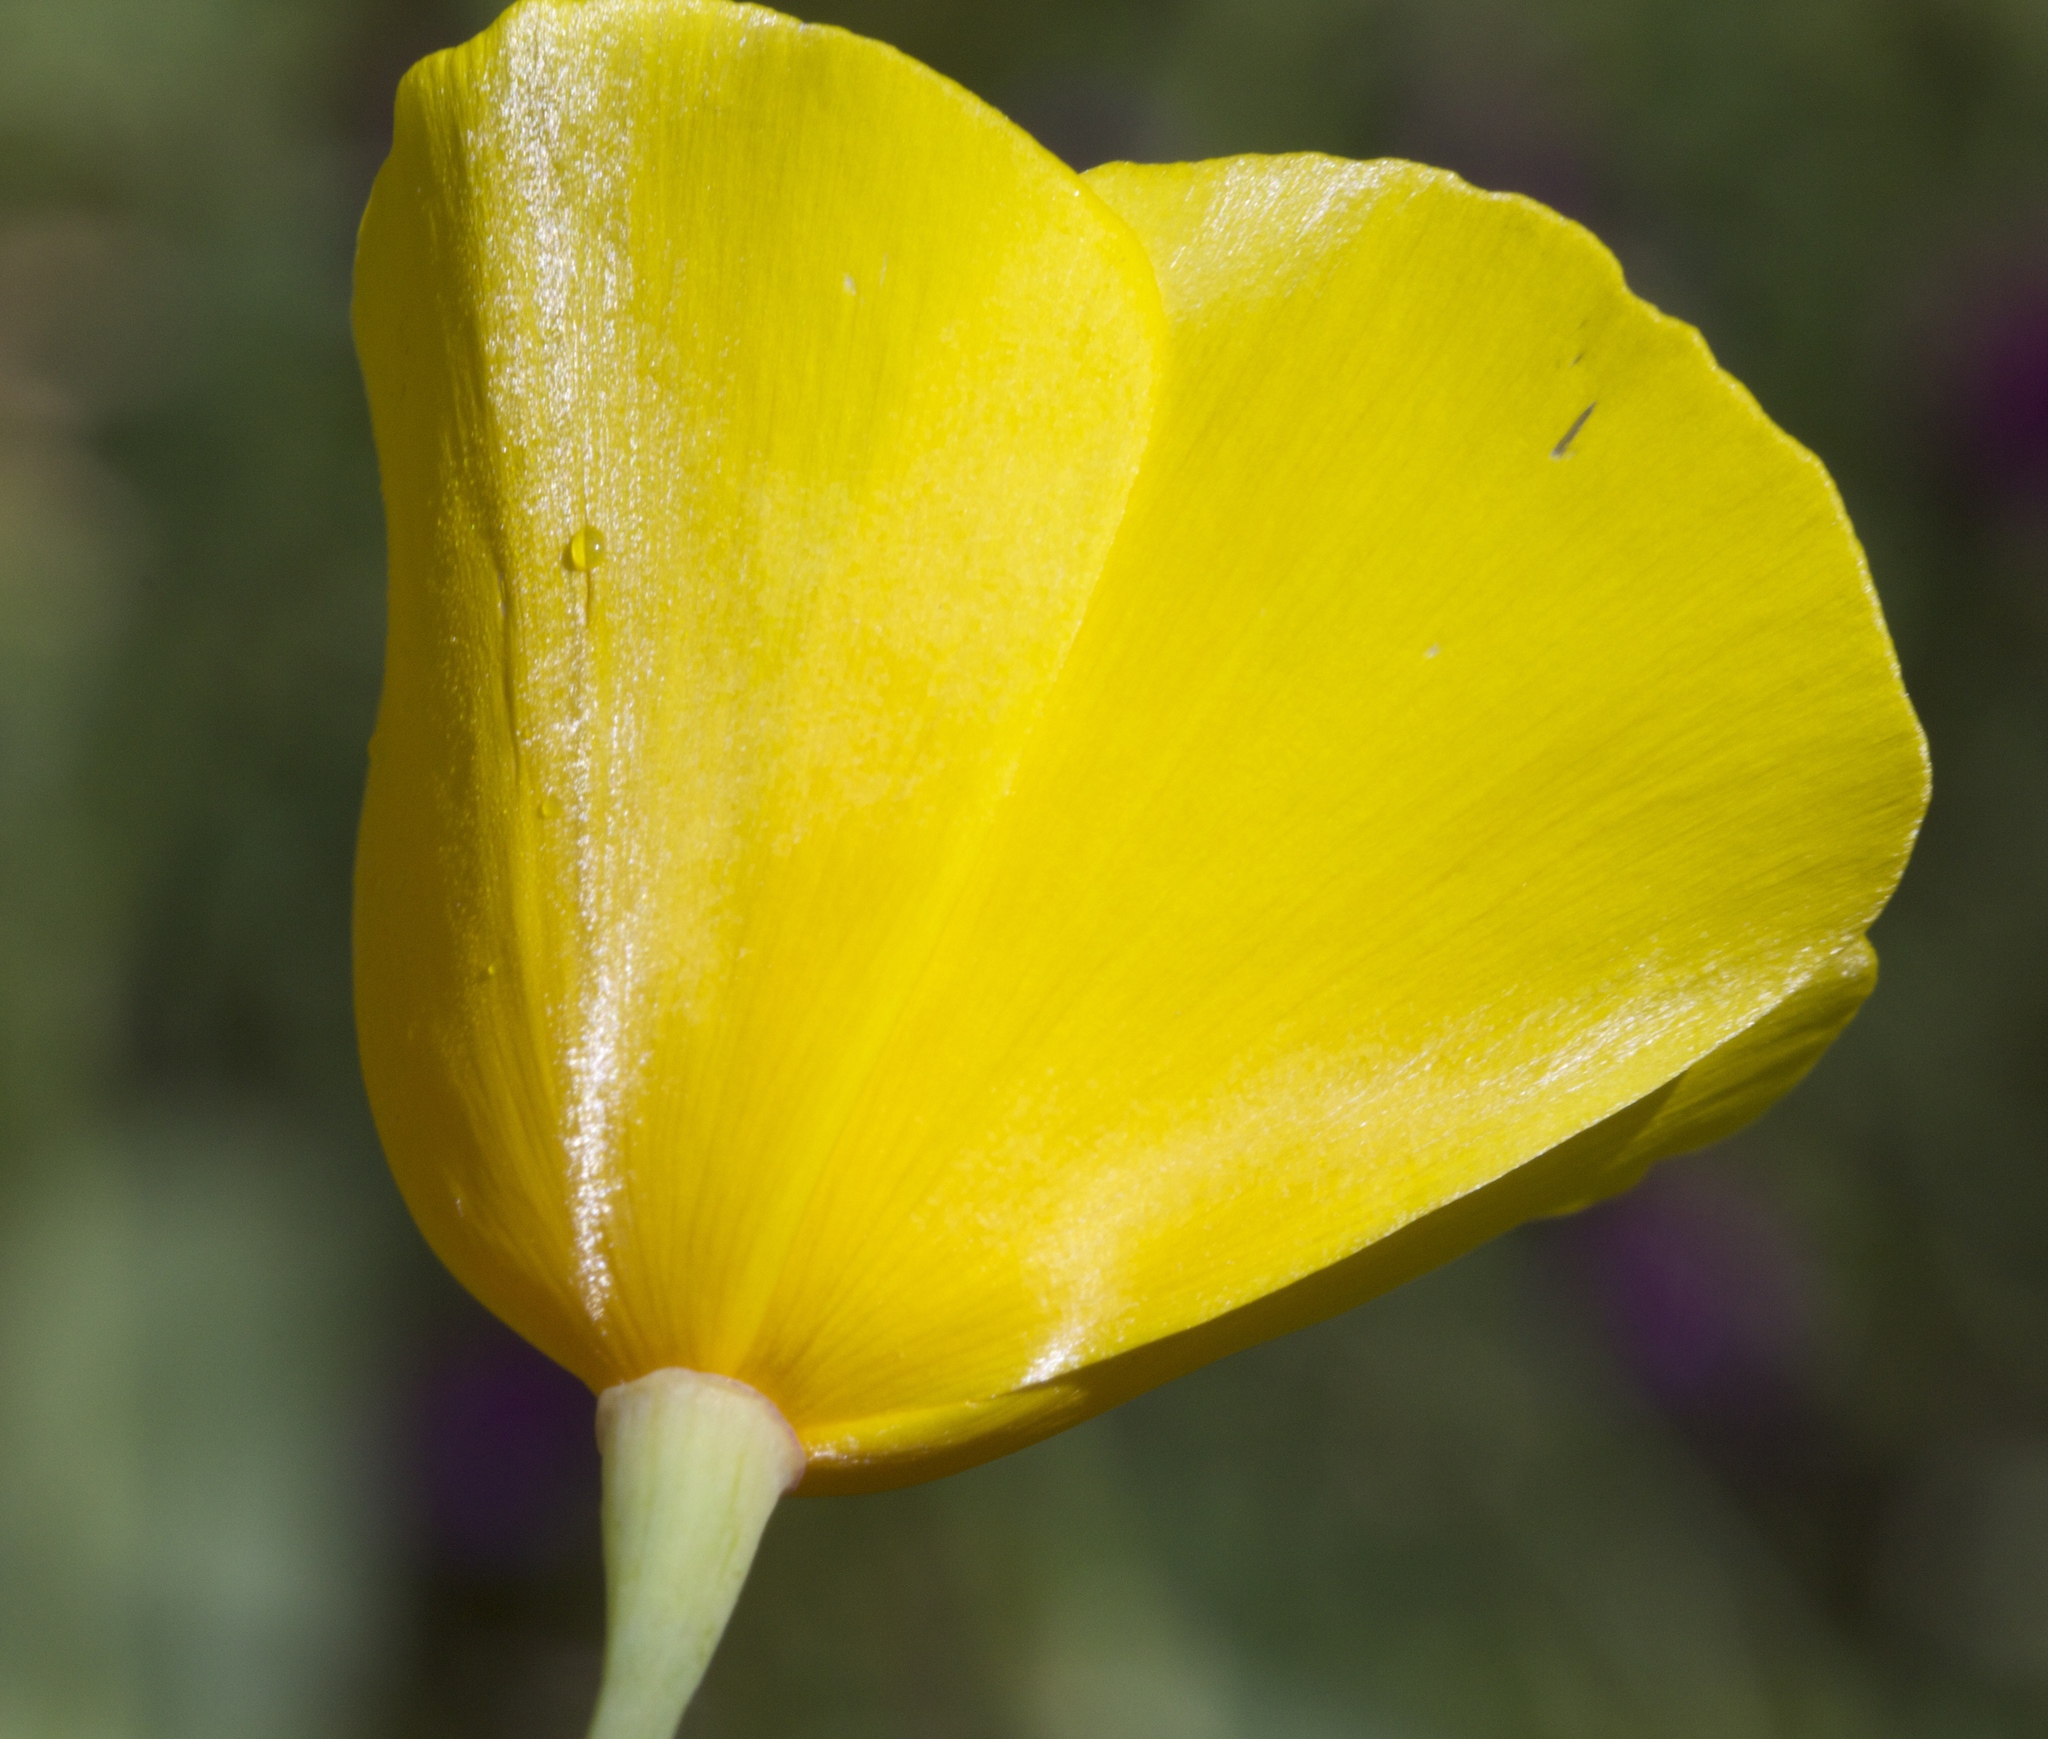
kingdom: Plantae
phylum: Tracheophyta
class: Magnoliopsida
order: Ranunculales
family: Papaveraceae
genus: Eschscholzia
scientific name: Eschscholzia caespitosa
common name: Tufted california-poppy
